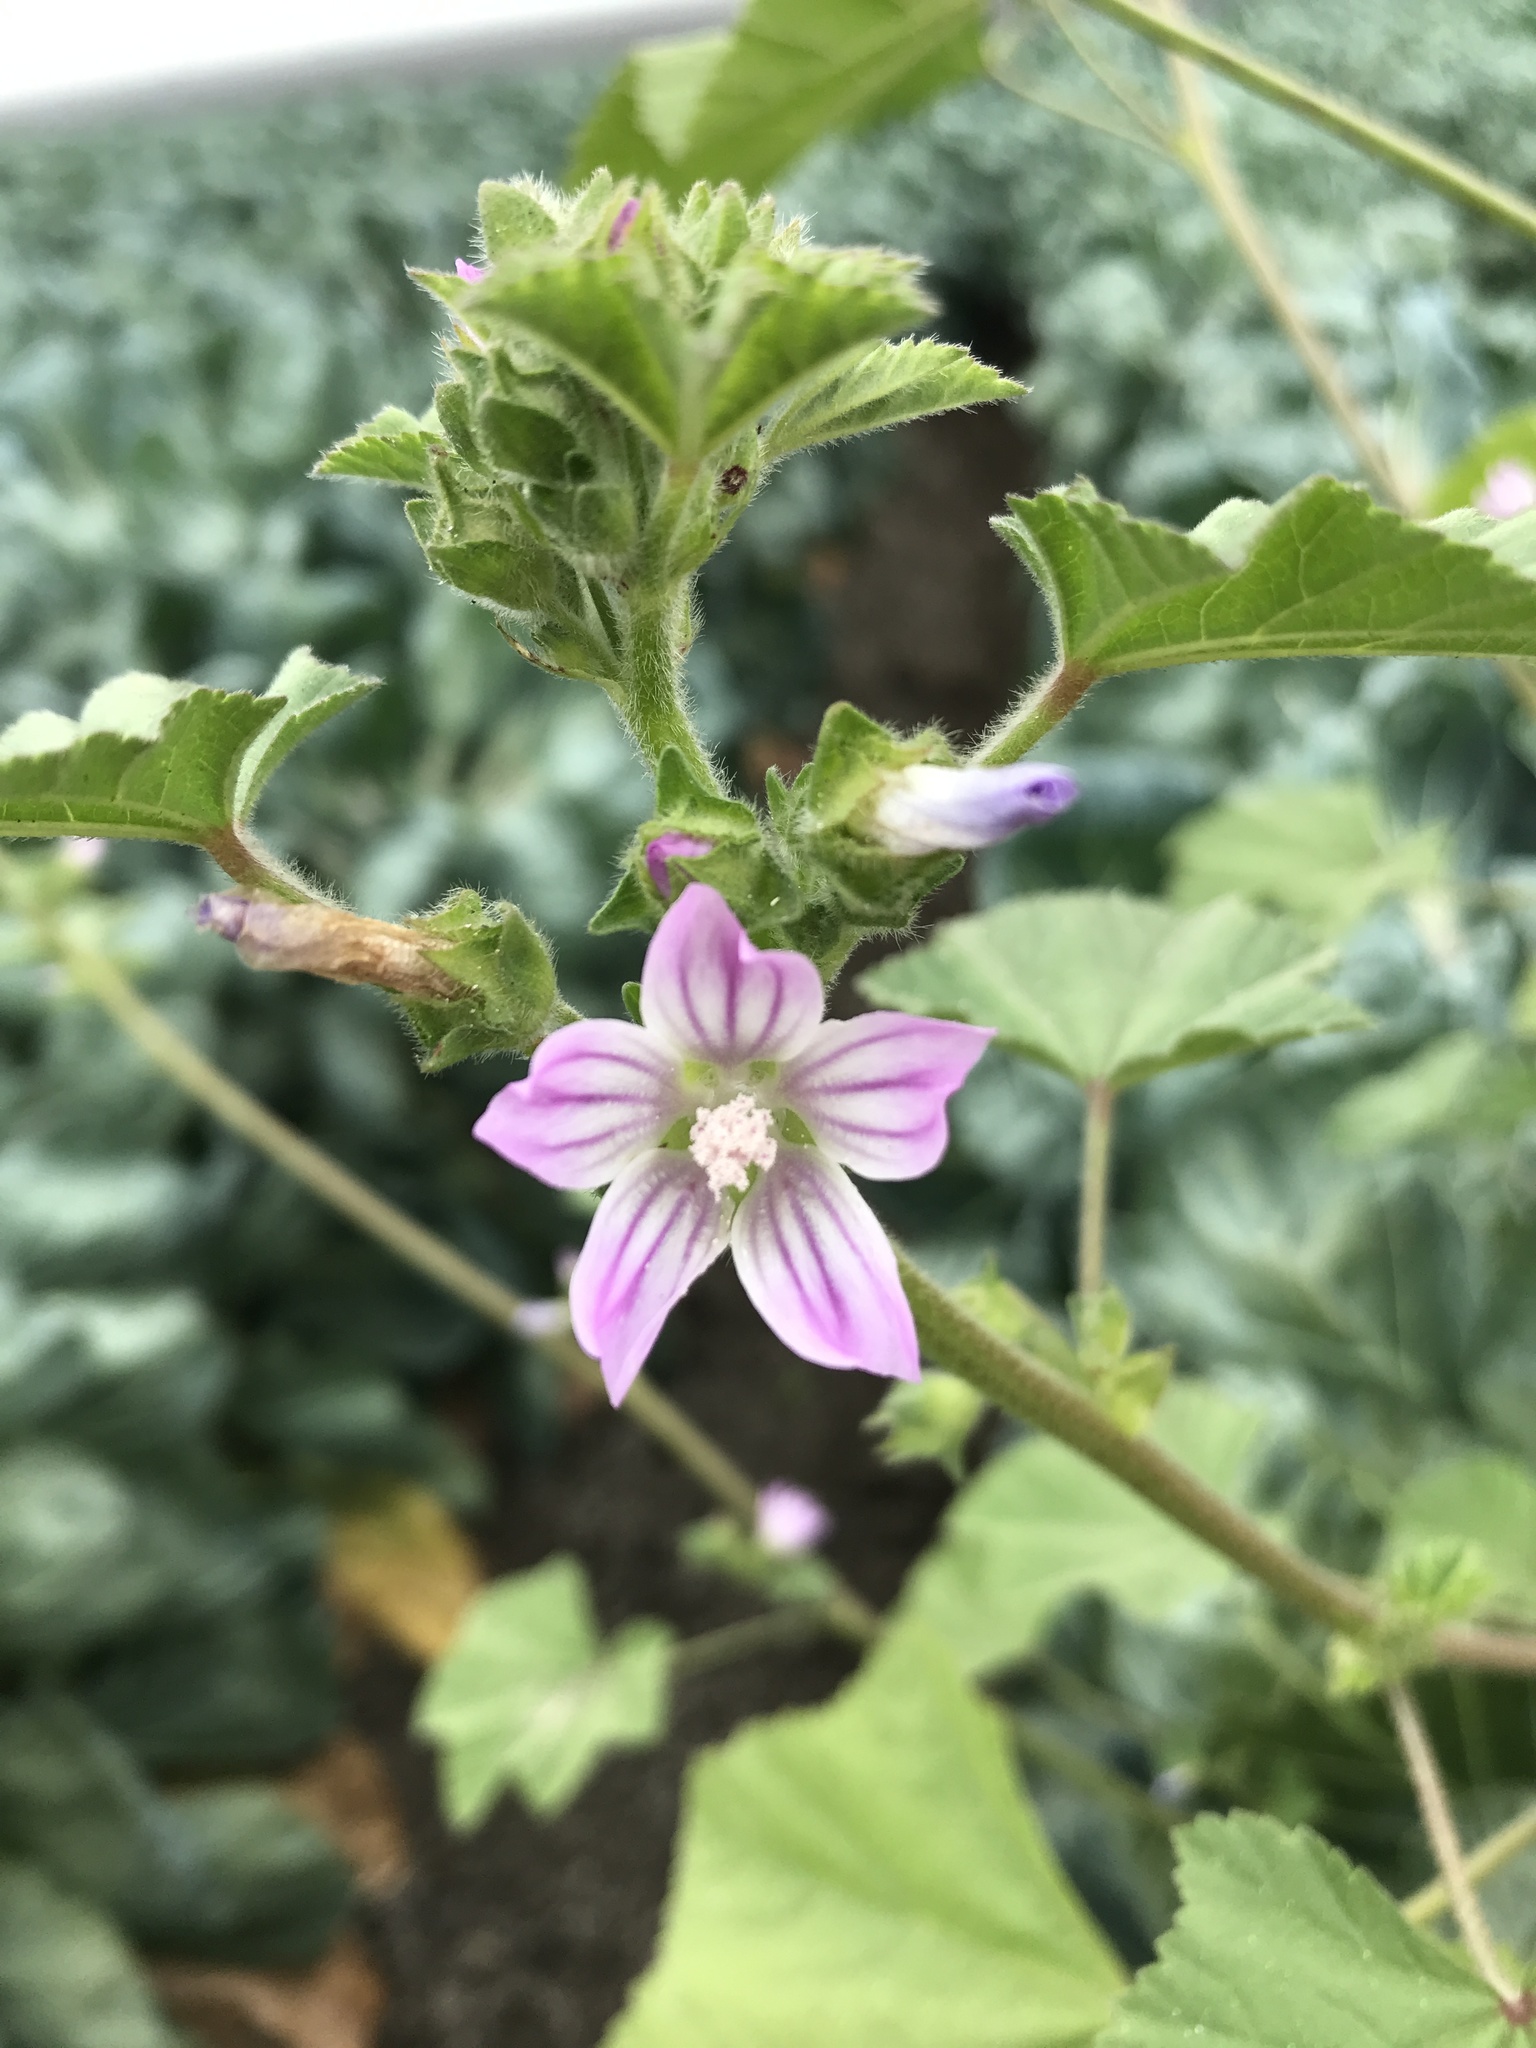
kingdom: Plantae
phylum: Tracheophyta
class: Magnoliopsida
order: Malvales
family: Malvaceae
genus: Malva
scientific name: Malva nicaeensis
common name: French mallow
